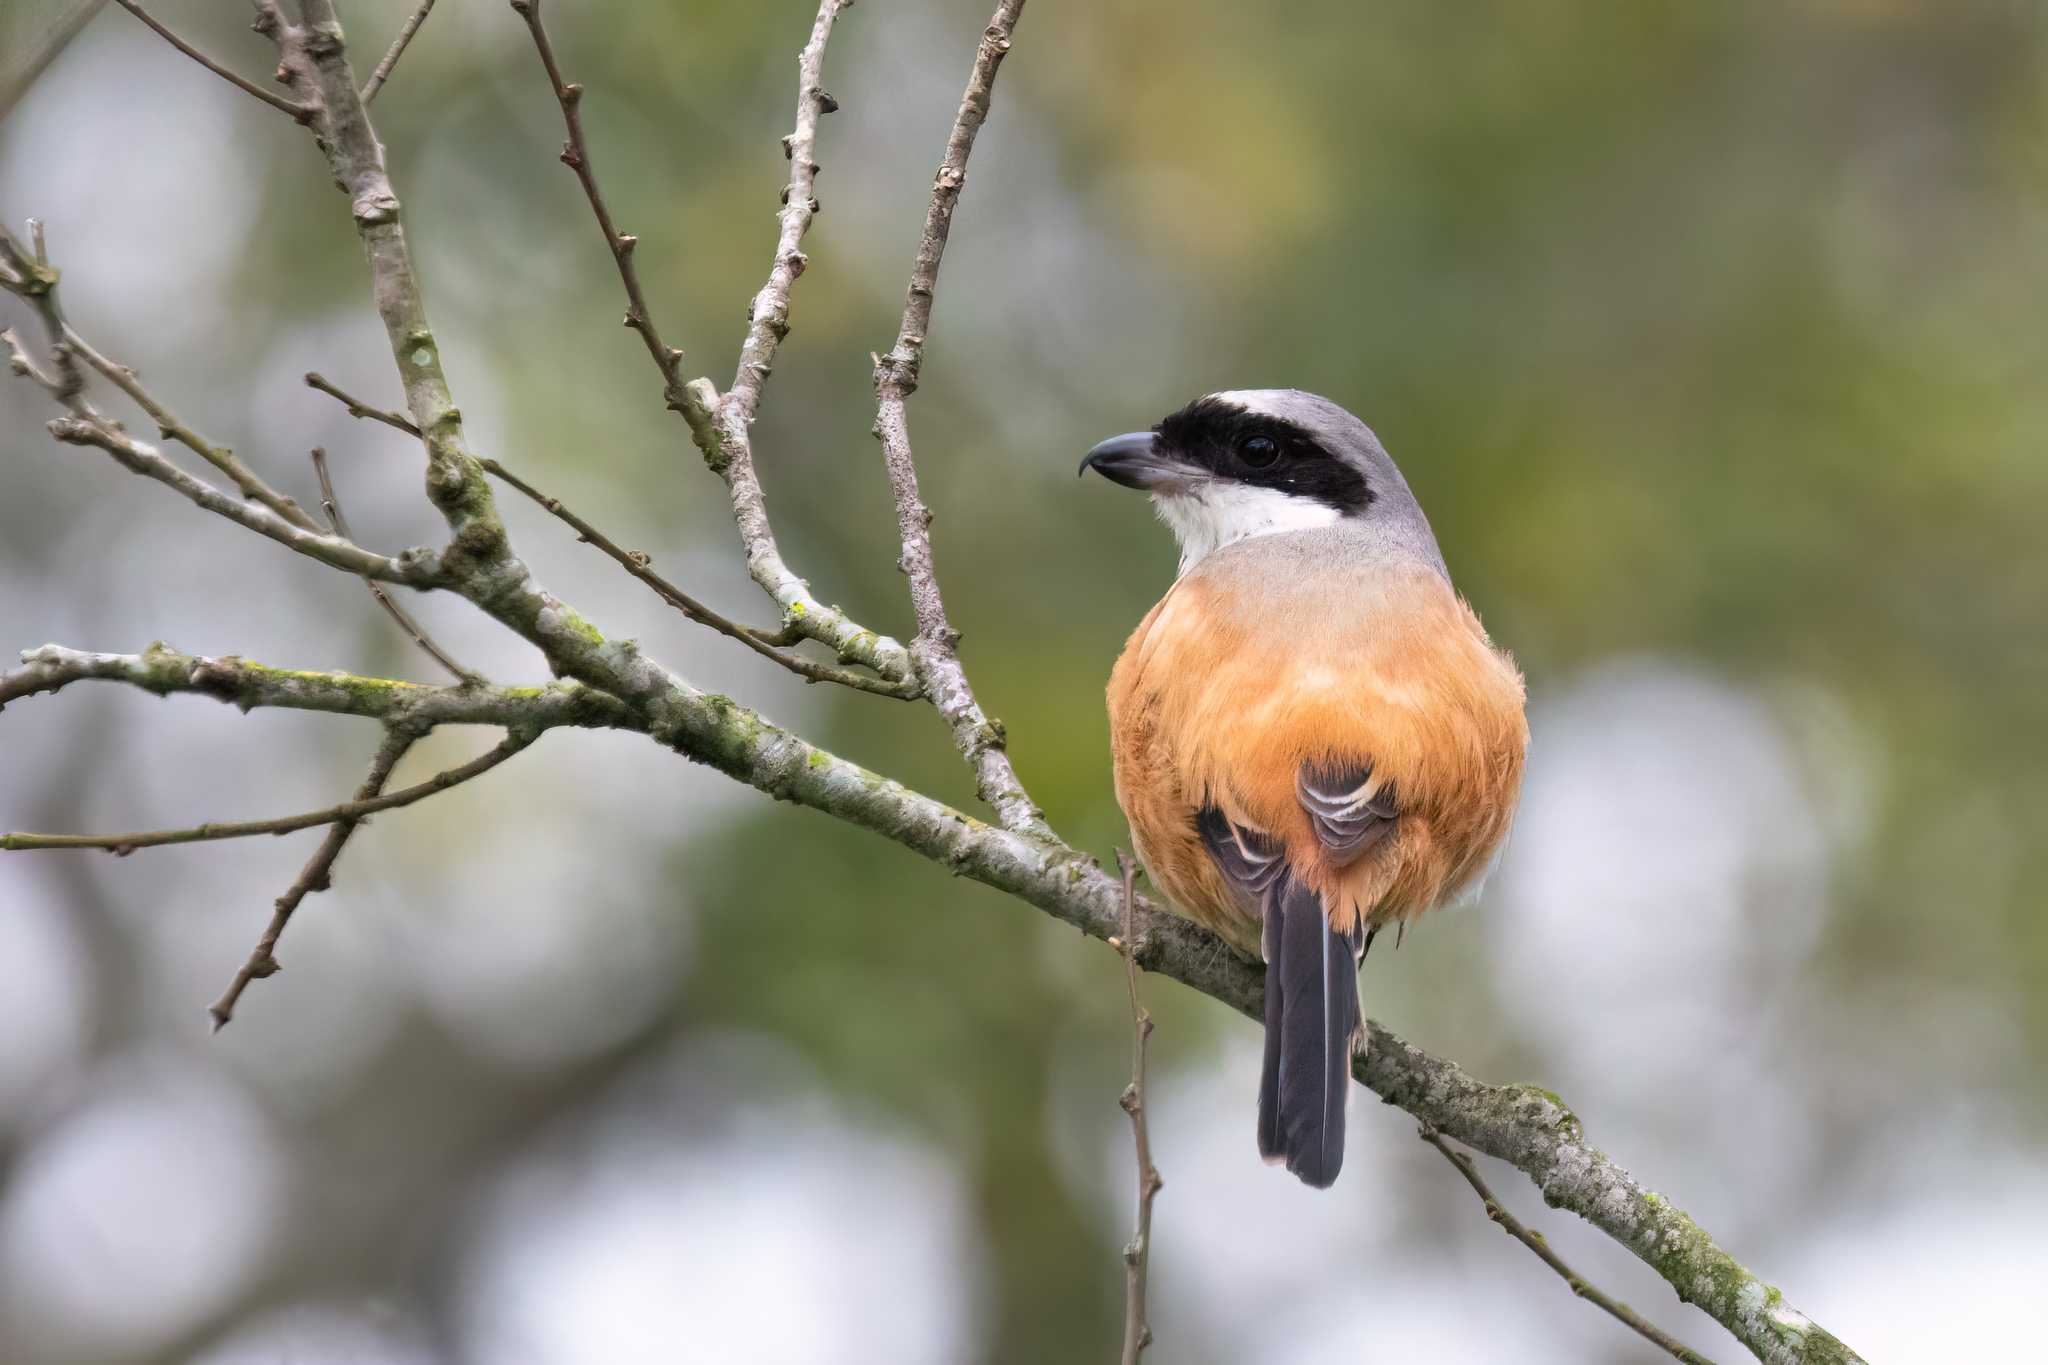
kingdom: Animalia
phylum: Chordata
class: Aves
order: Passeriformes
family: Laniidae
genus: Lanius
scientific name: Lanius schach
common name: Long-tailed shrike
